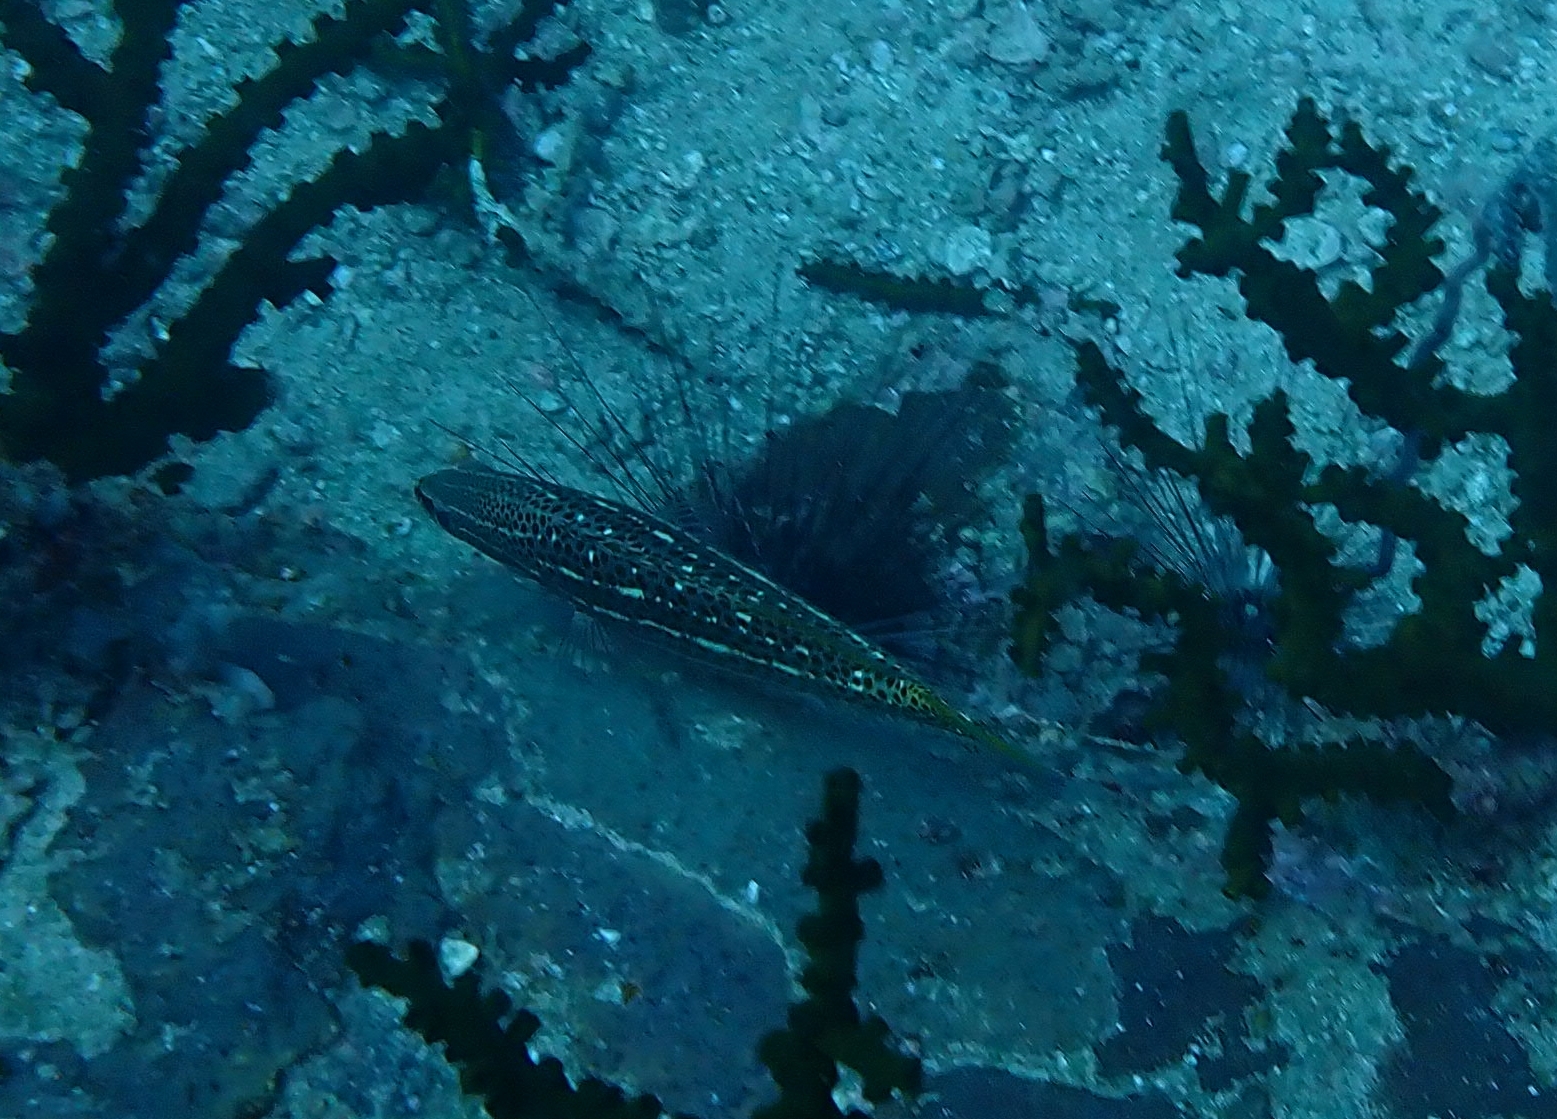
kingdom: Animalia
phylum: Chordata
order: Perciformes
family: Serranidae
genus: Anyperodon
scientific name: Anyperodon leucogrammicus
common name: Slender grouper
